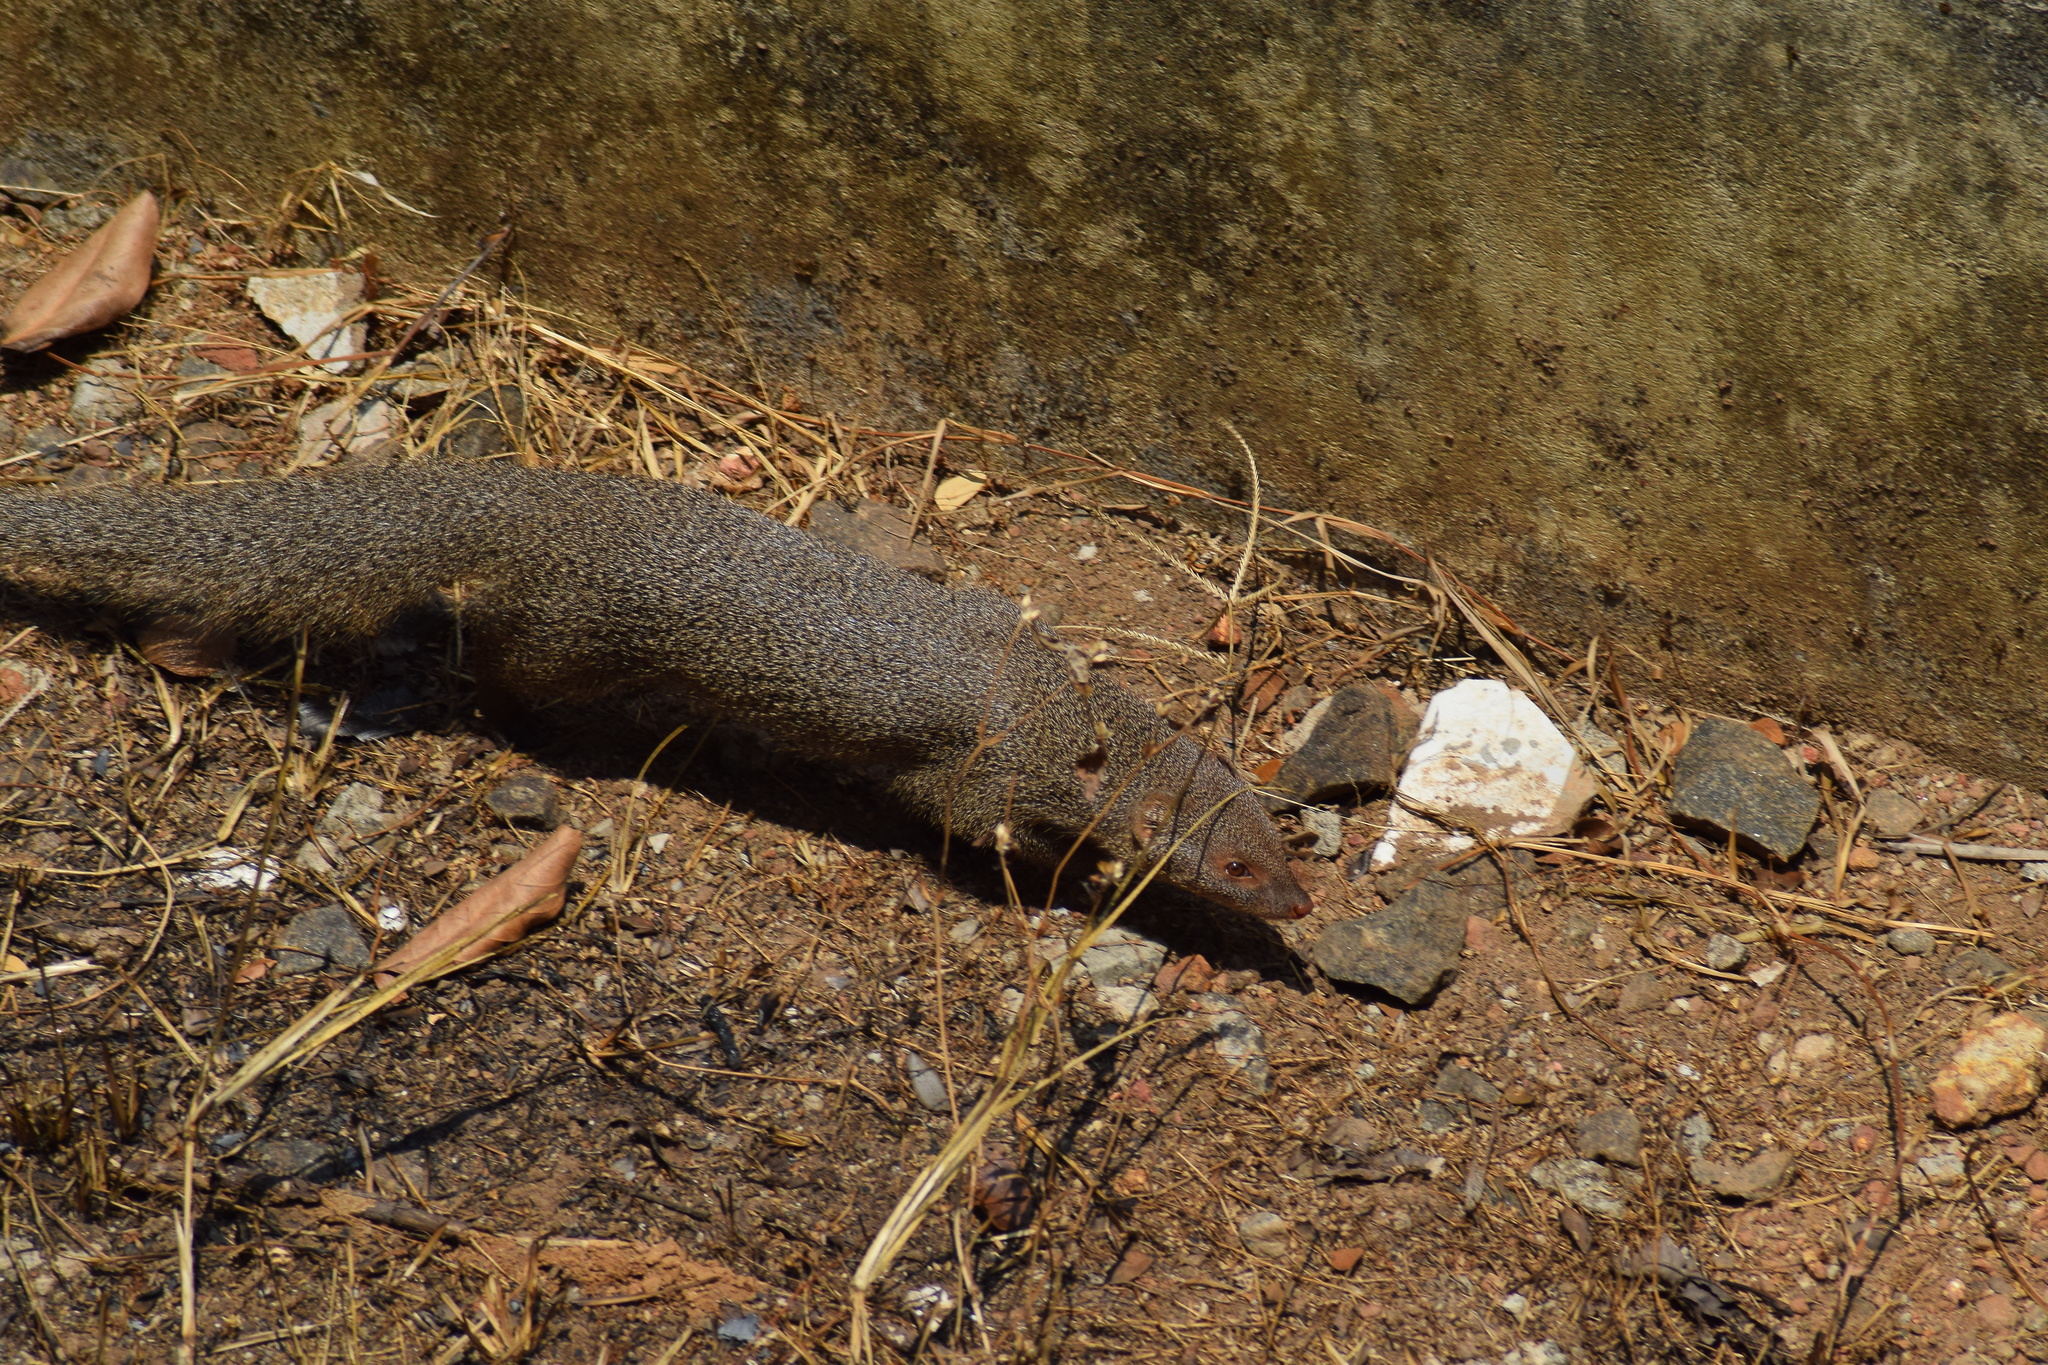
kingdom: Animalia
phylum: Chordata
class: Mammalia
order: Carnivora
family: Herpestidae
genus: Herpestes
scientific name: Herpestes edwardsi
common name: Indian gray mongoose
